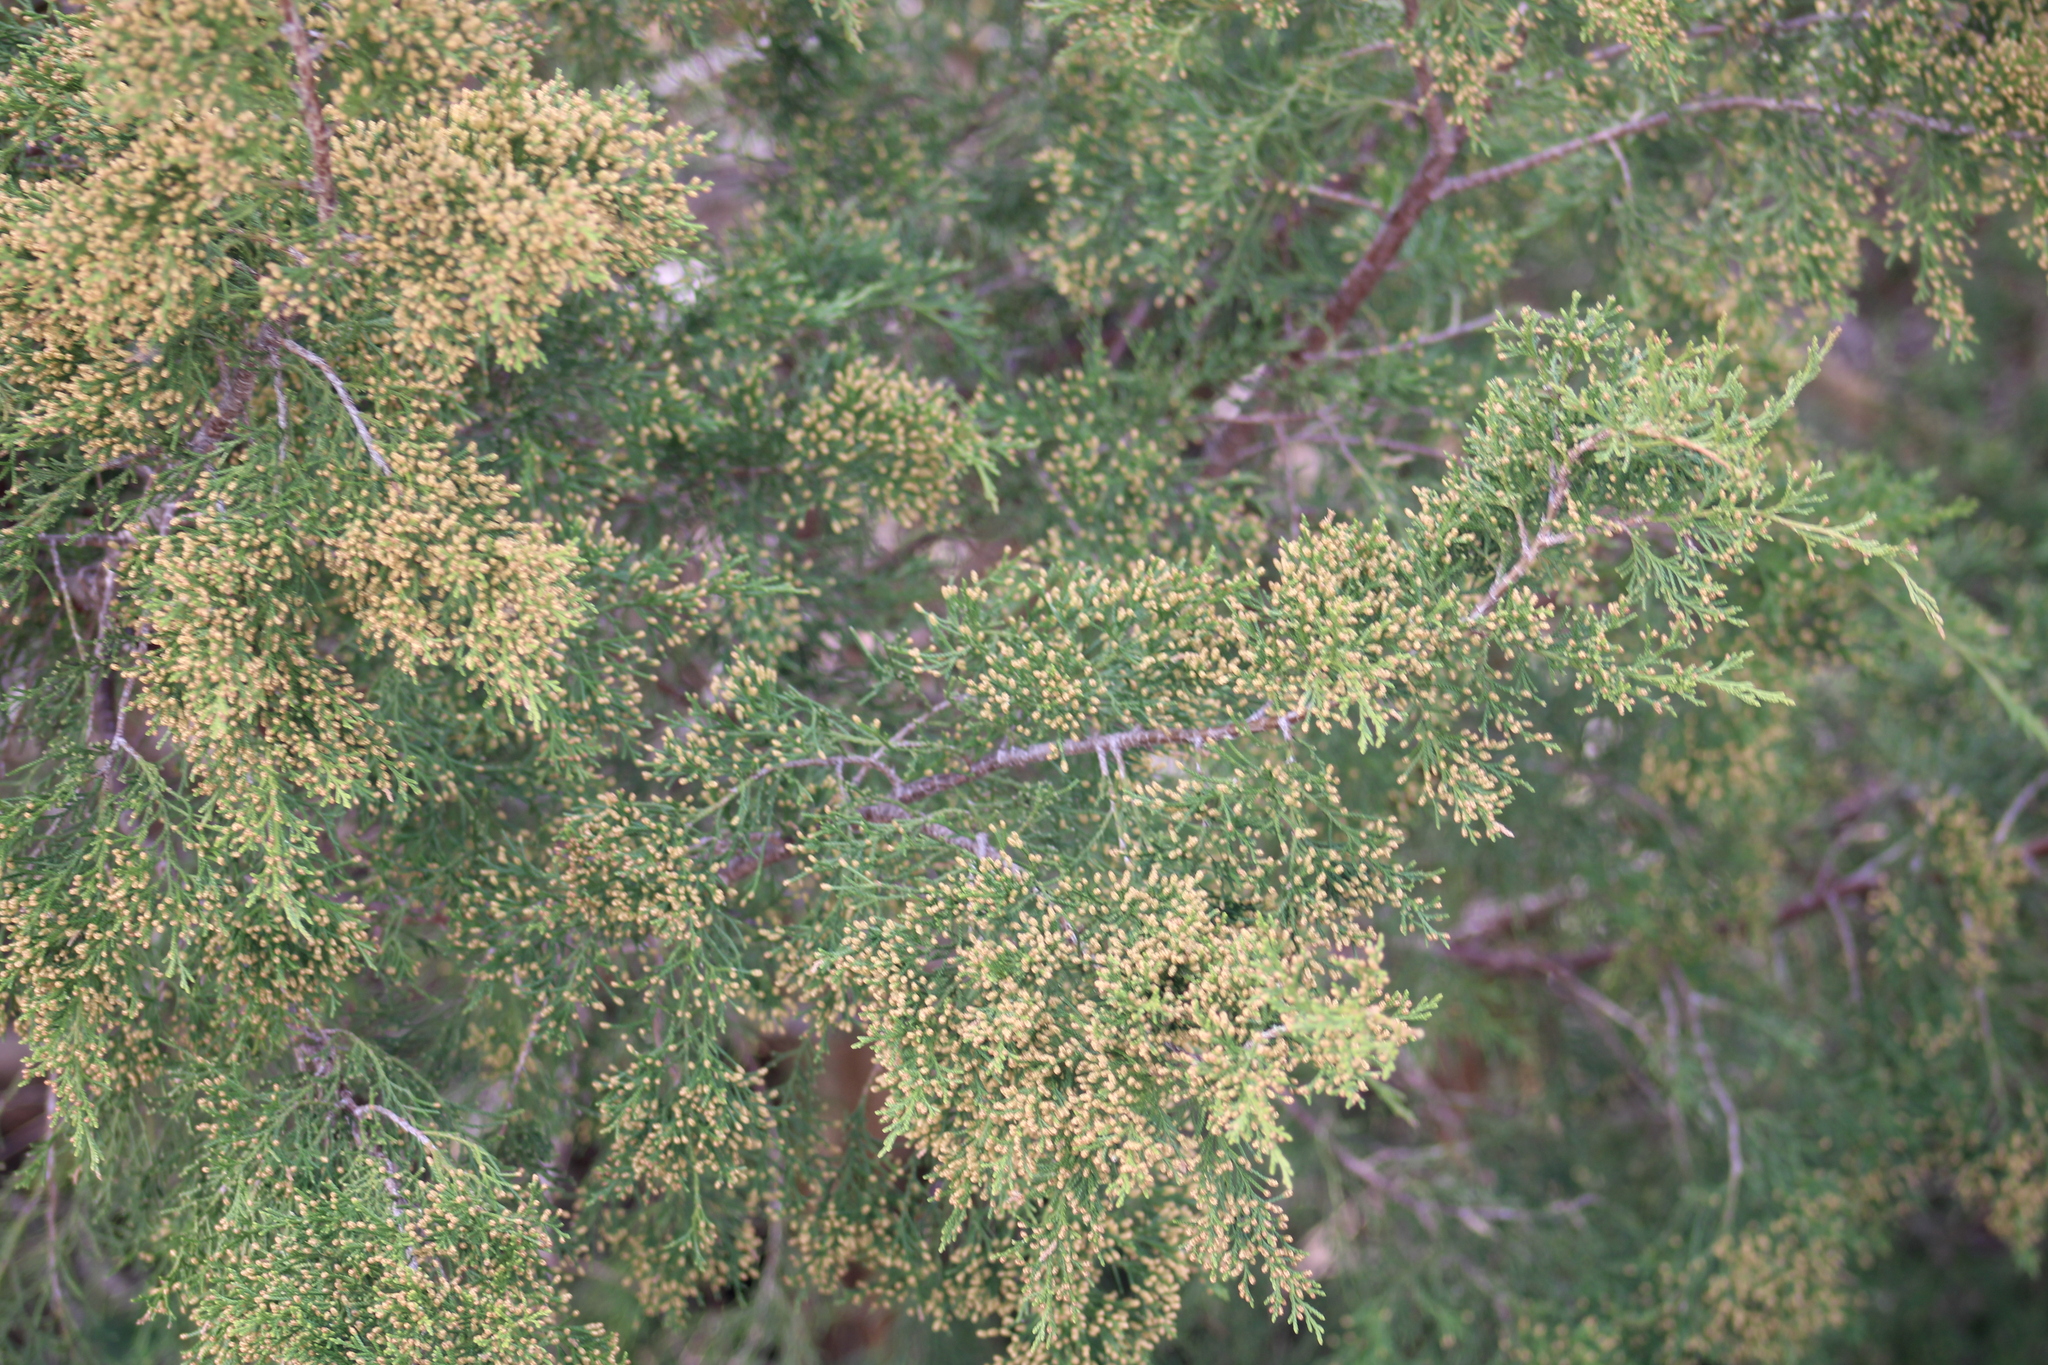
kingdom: Plantae
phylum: Tracheophyta
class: Pinopsida
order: Pinales
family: Cupressaceae
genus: Juniperus
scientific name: Juniperus virginiana
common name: Red juniper
